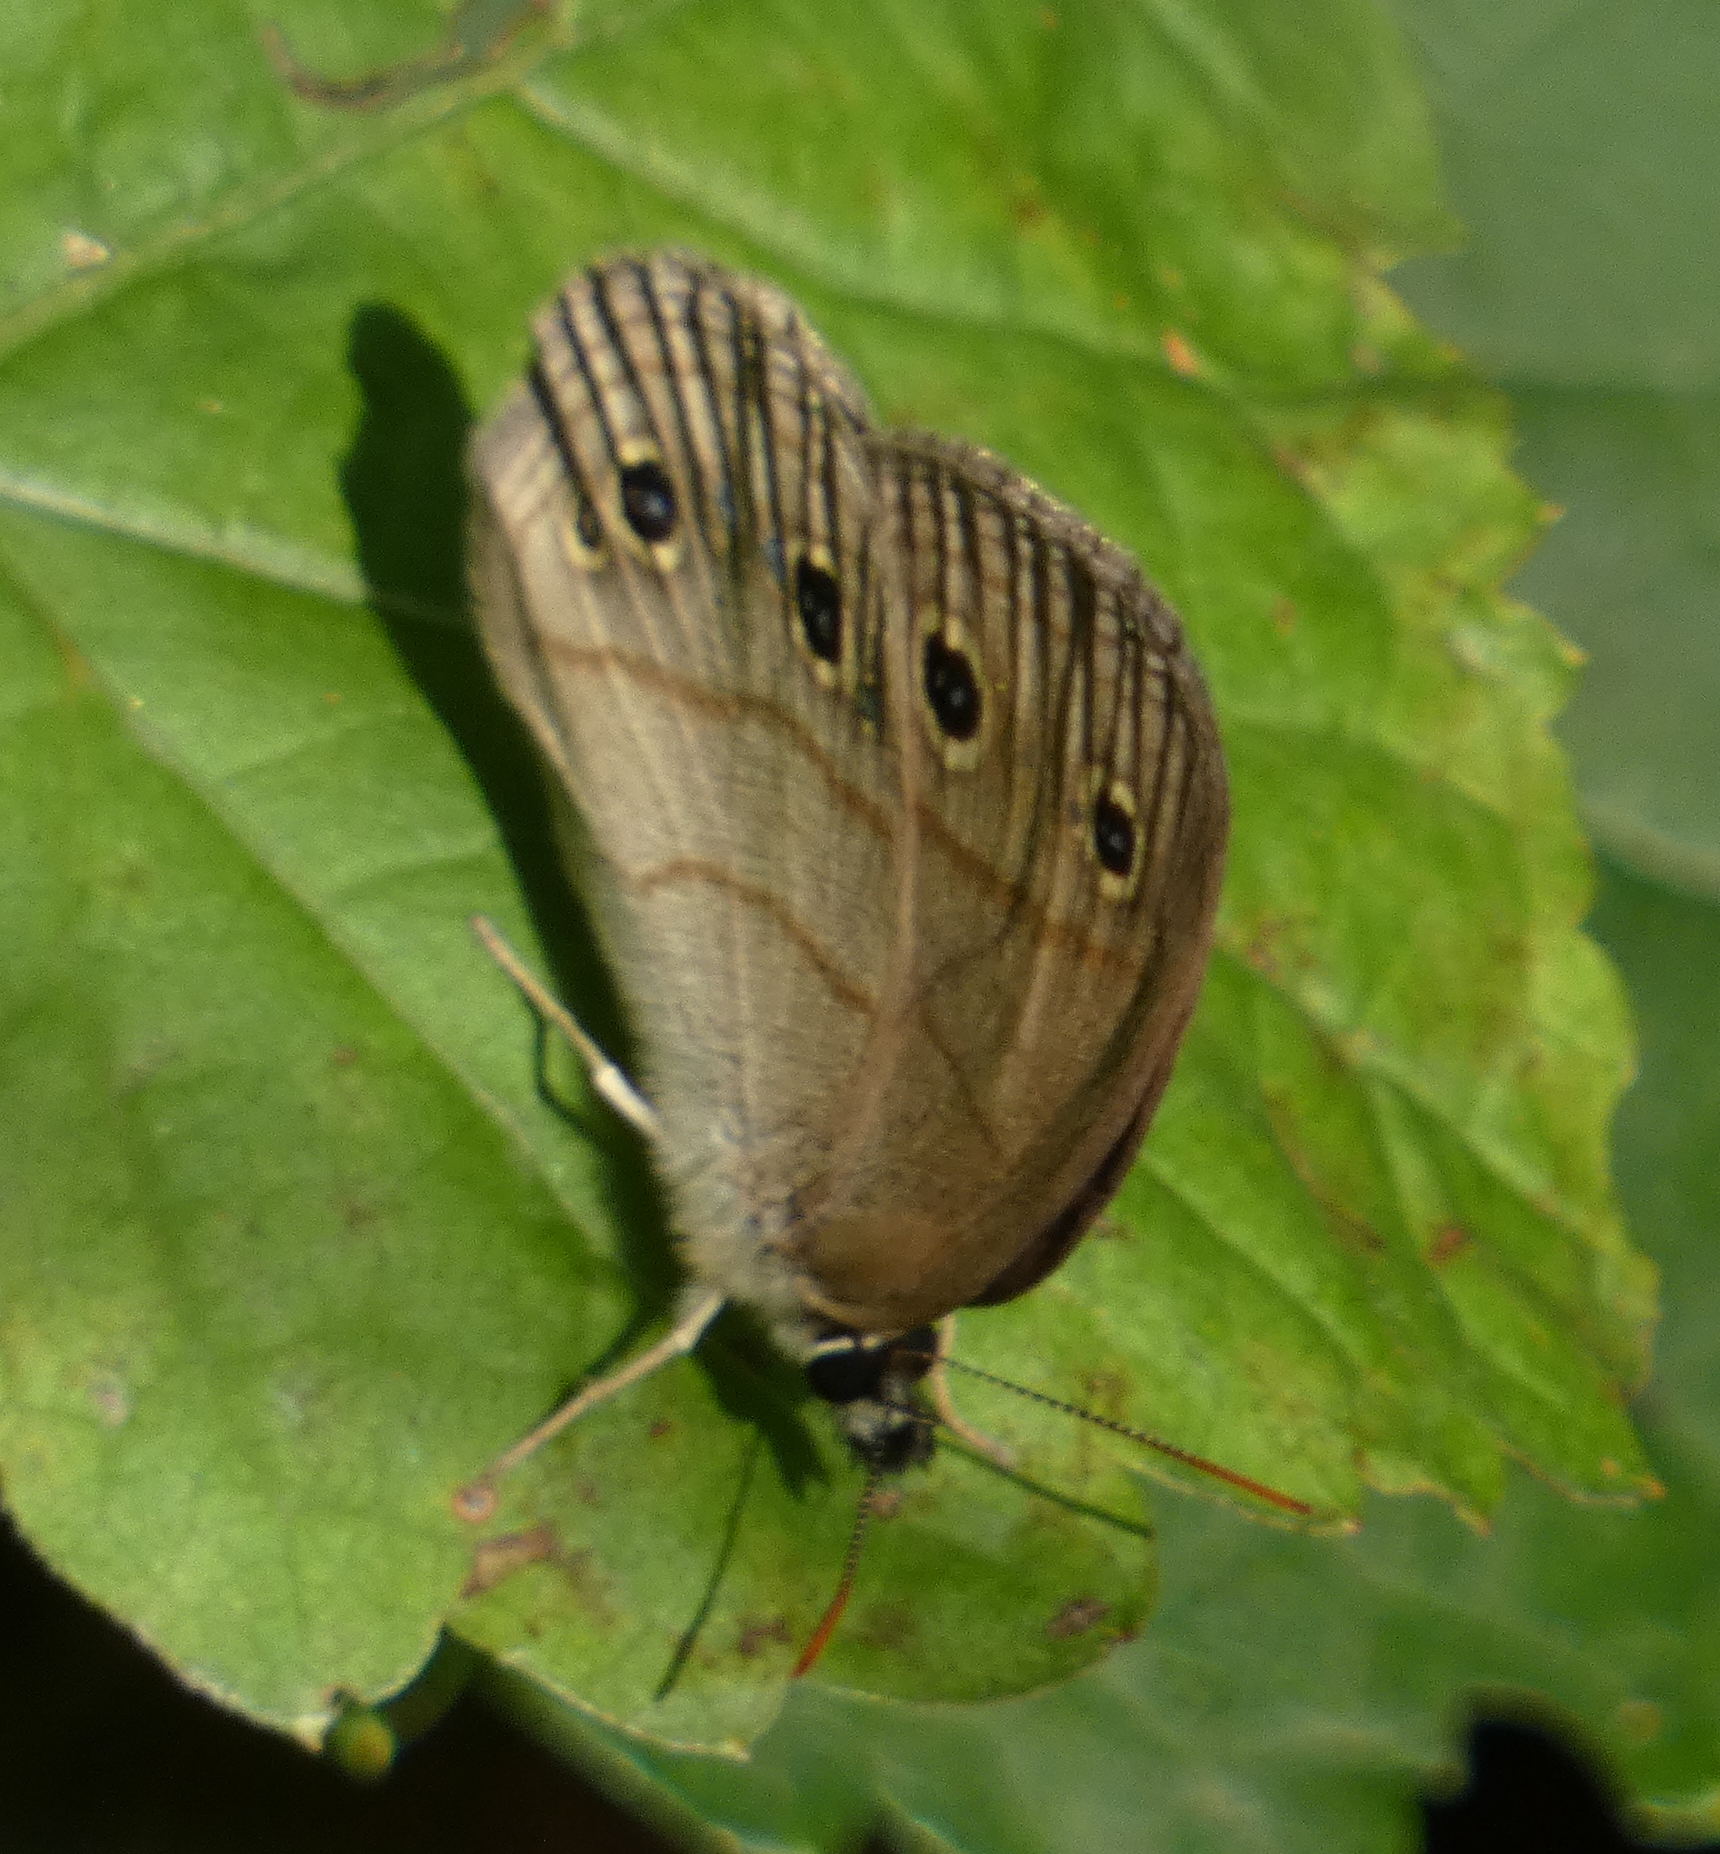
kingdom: Animalia
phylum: Arthropoda
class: Insecta
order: Lepidoptera
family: Nymphalidae
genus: Euptychia
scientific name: Euptychia cymela
